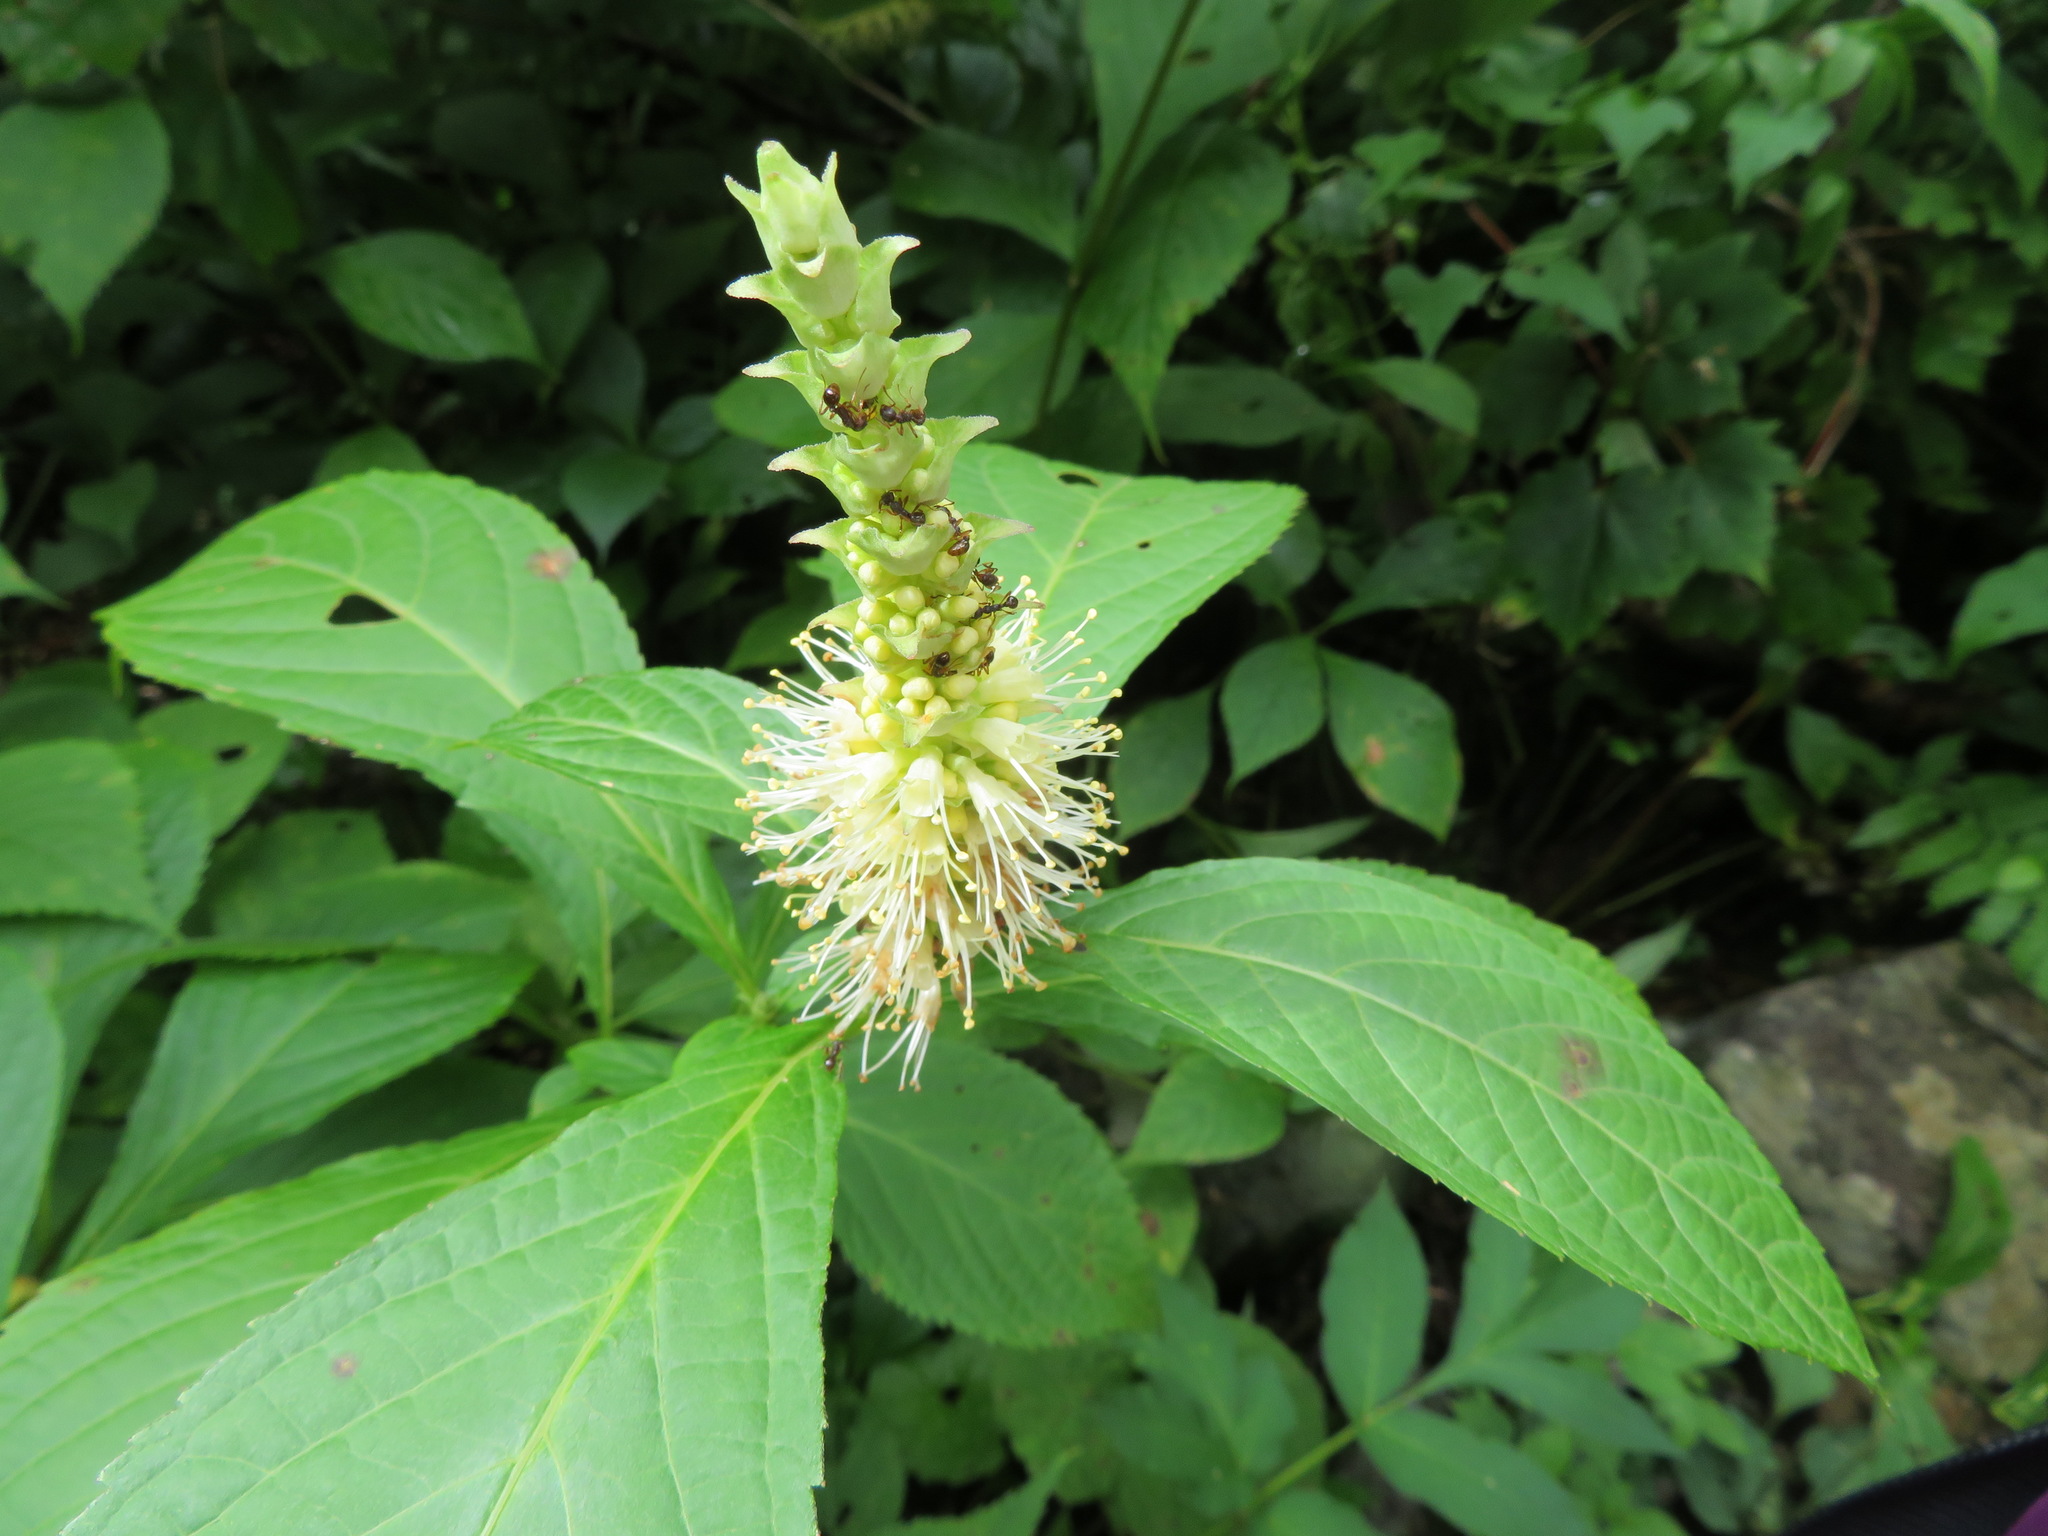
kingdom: Plantae
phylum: Tracheophyta
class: Magnoliopsida
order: Lamiales
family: Lamiaceae
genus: Comanthosphace
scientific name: Comanthosphace japonica
